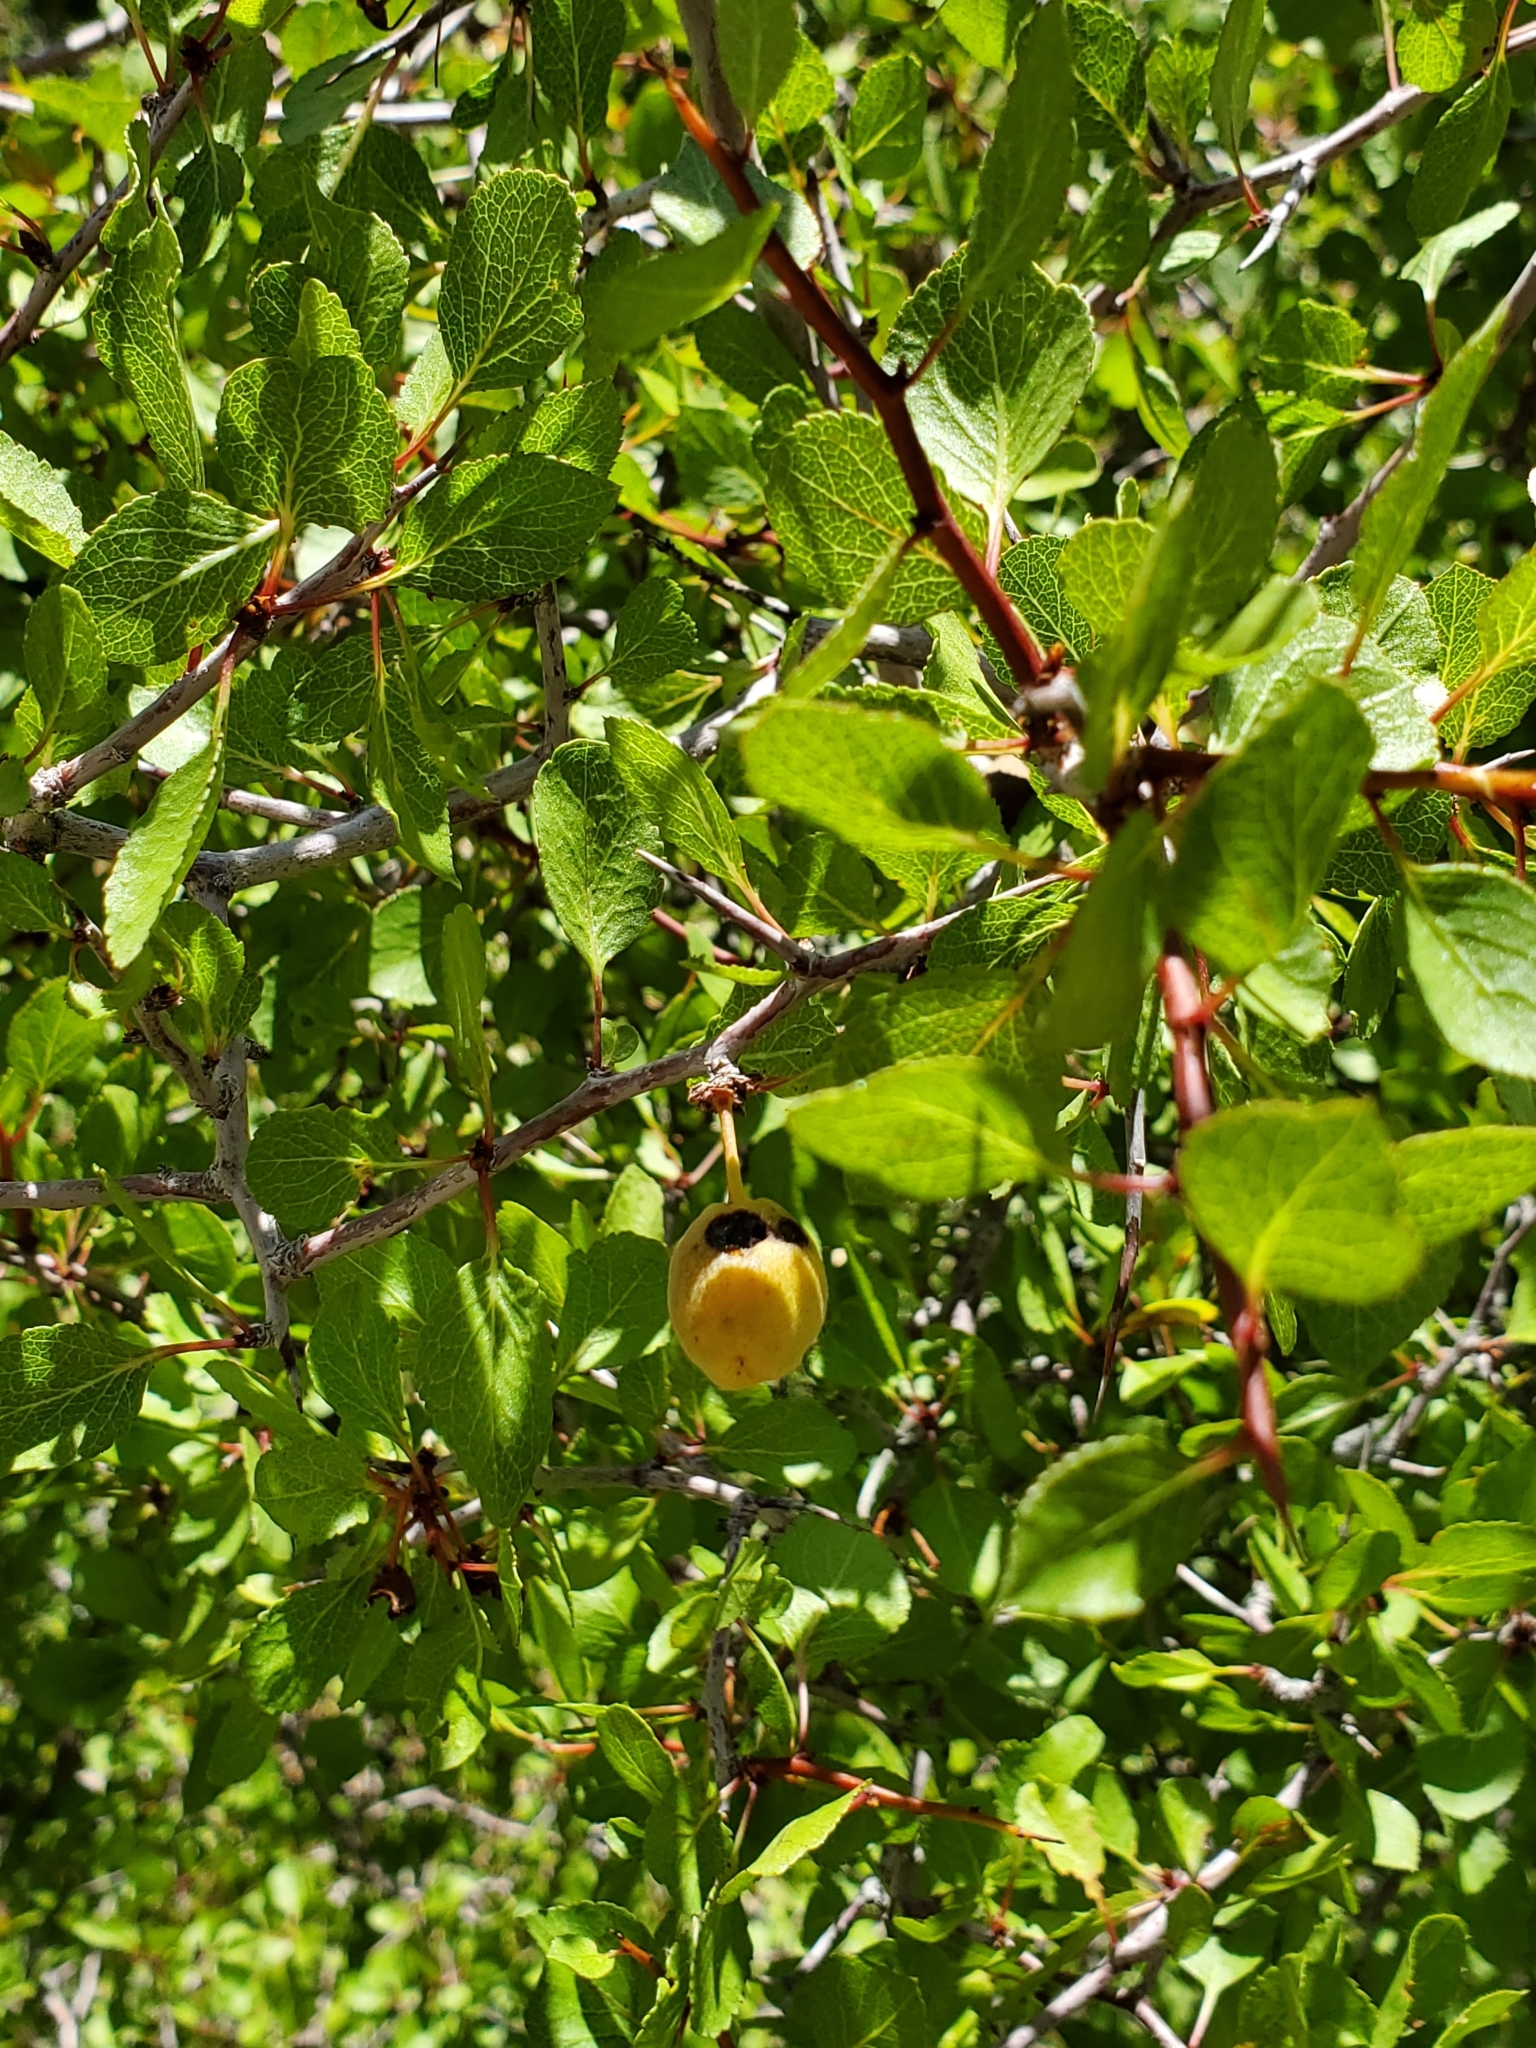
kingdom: Plantae
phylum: Tracheophyta
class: Magnoliopsida
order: Rosales
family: Rosaceae
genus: Prunus
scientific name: Prunus fremontii
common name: Desert apricot
